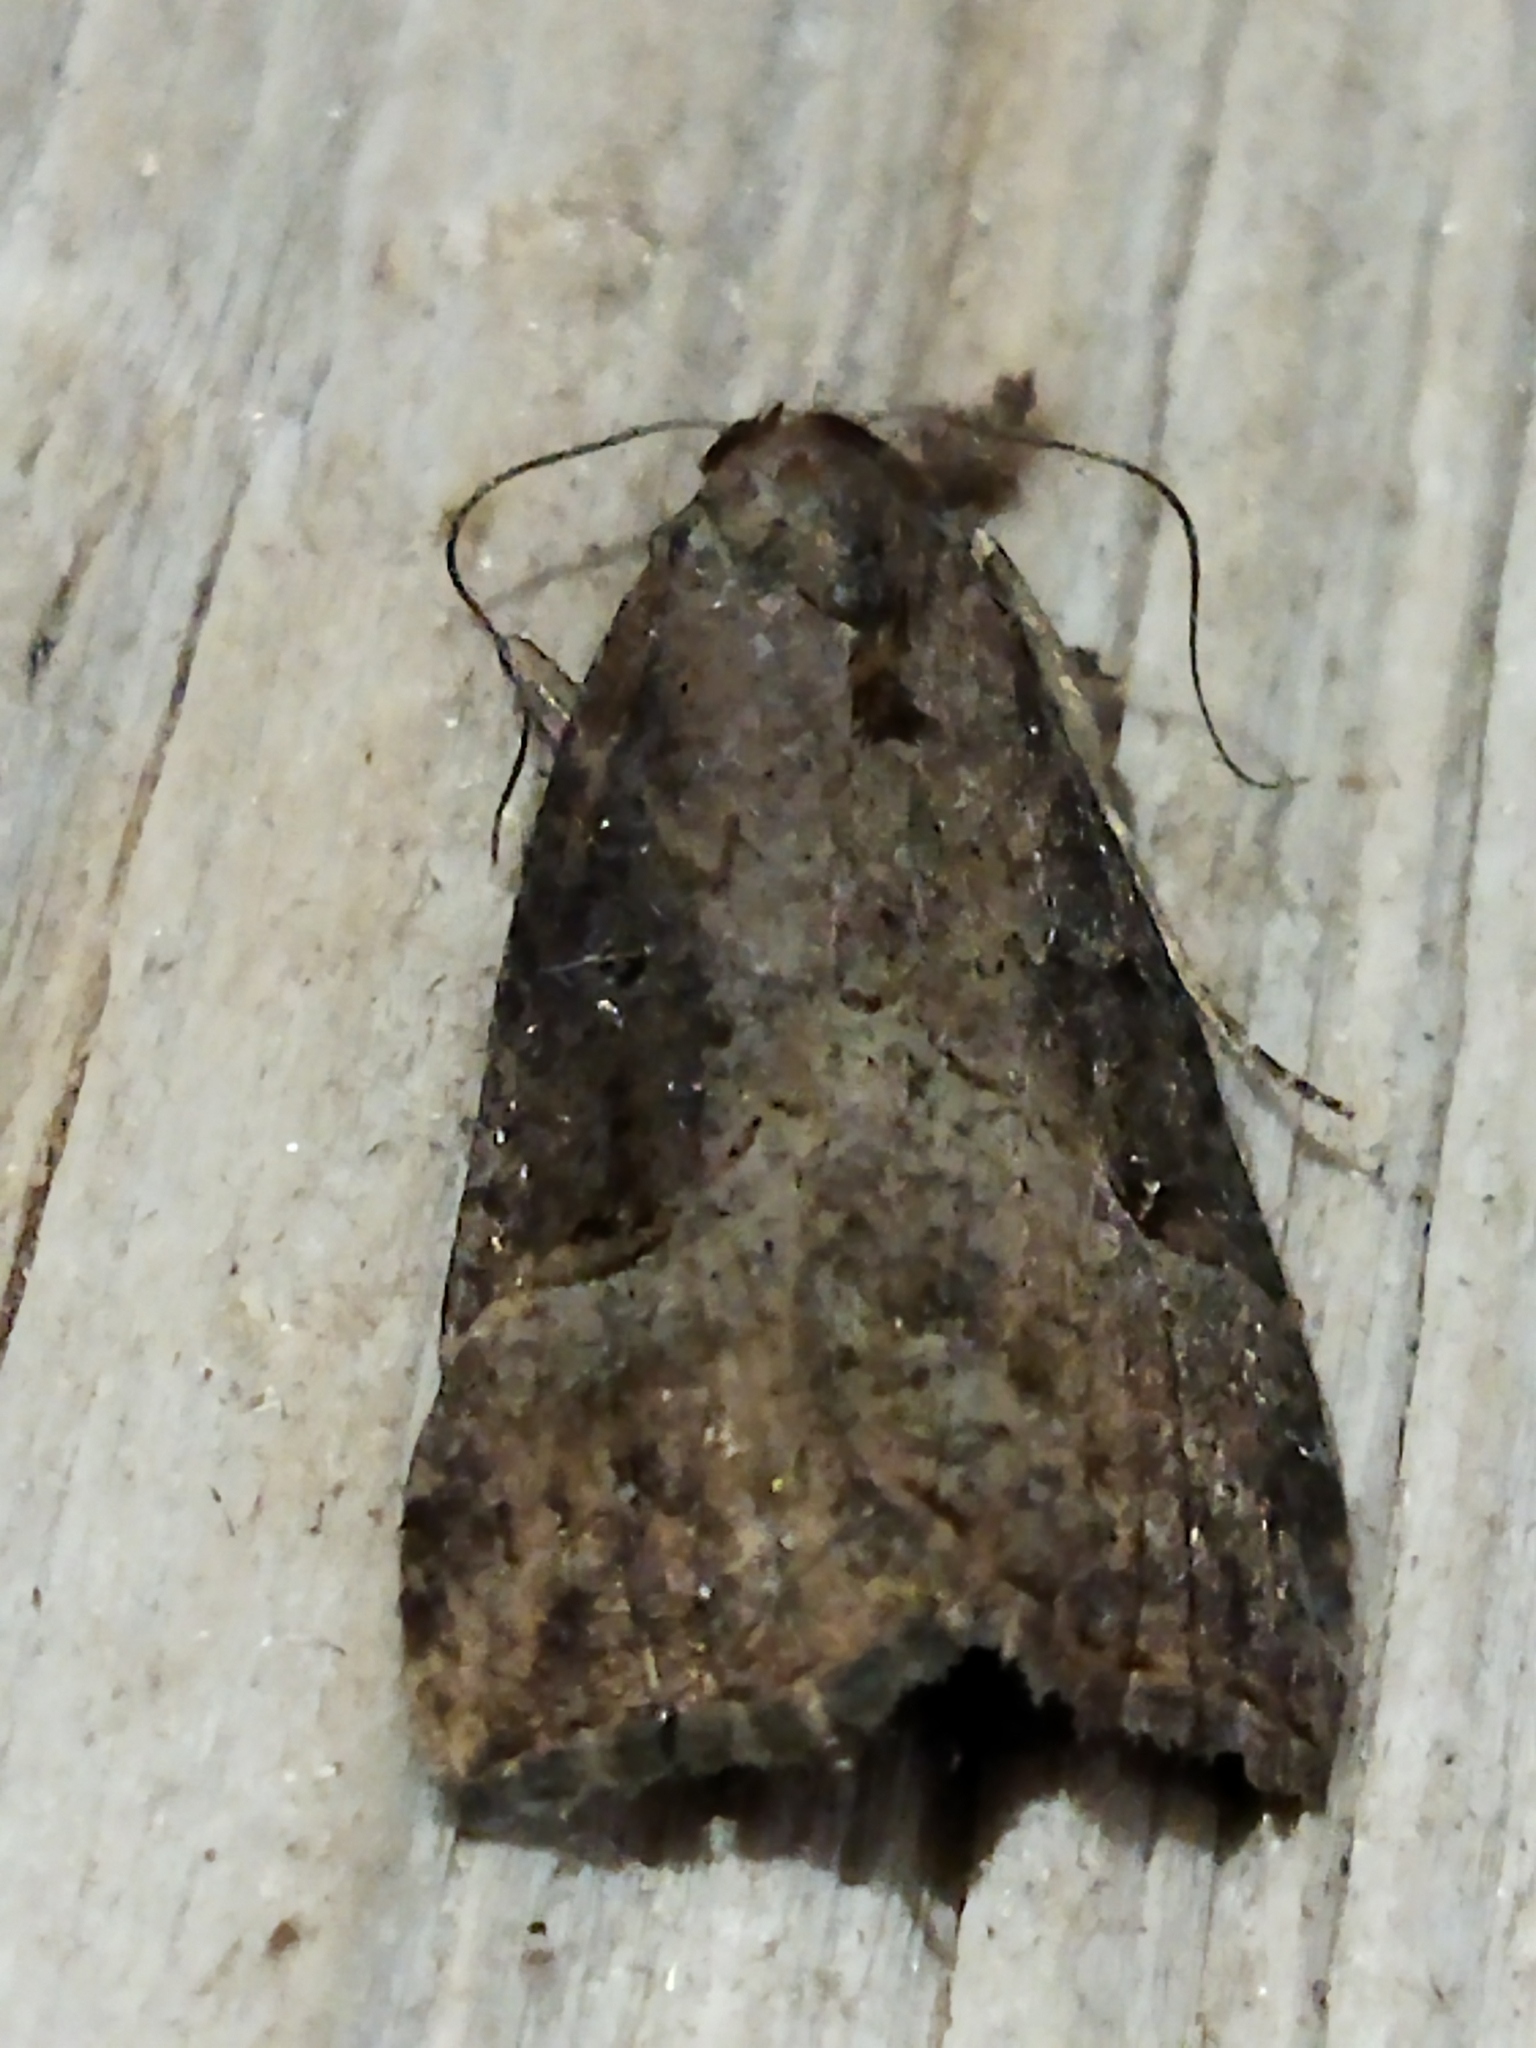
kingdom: Animalia
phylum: Arthropoda
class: Insecta
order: Lepidoptera
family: Erebidae
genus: Hypena
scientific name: Hypena rostralis
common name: Buttoned snout
